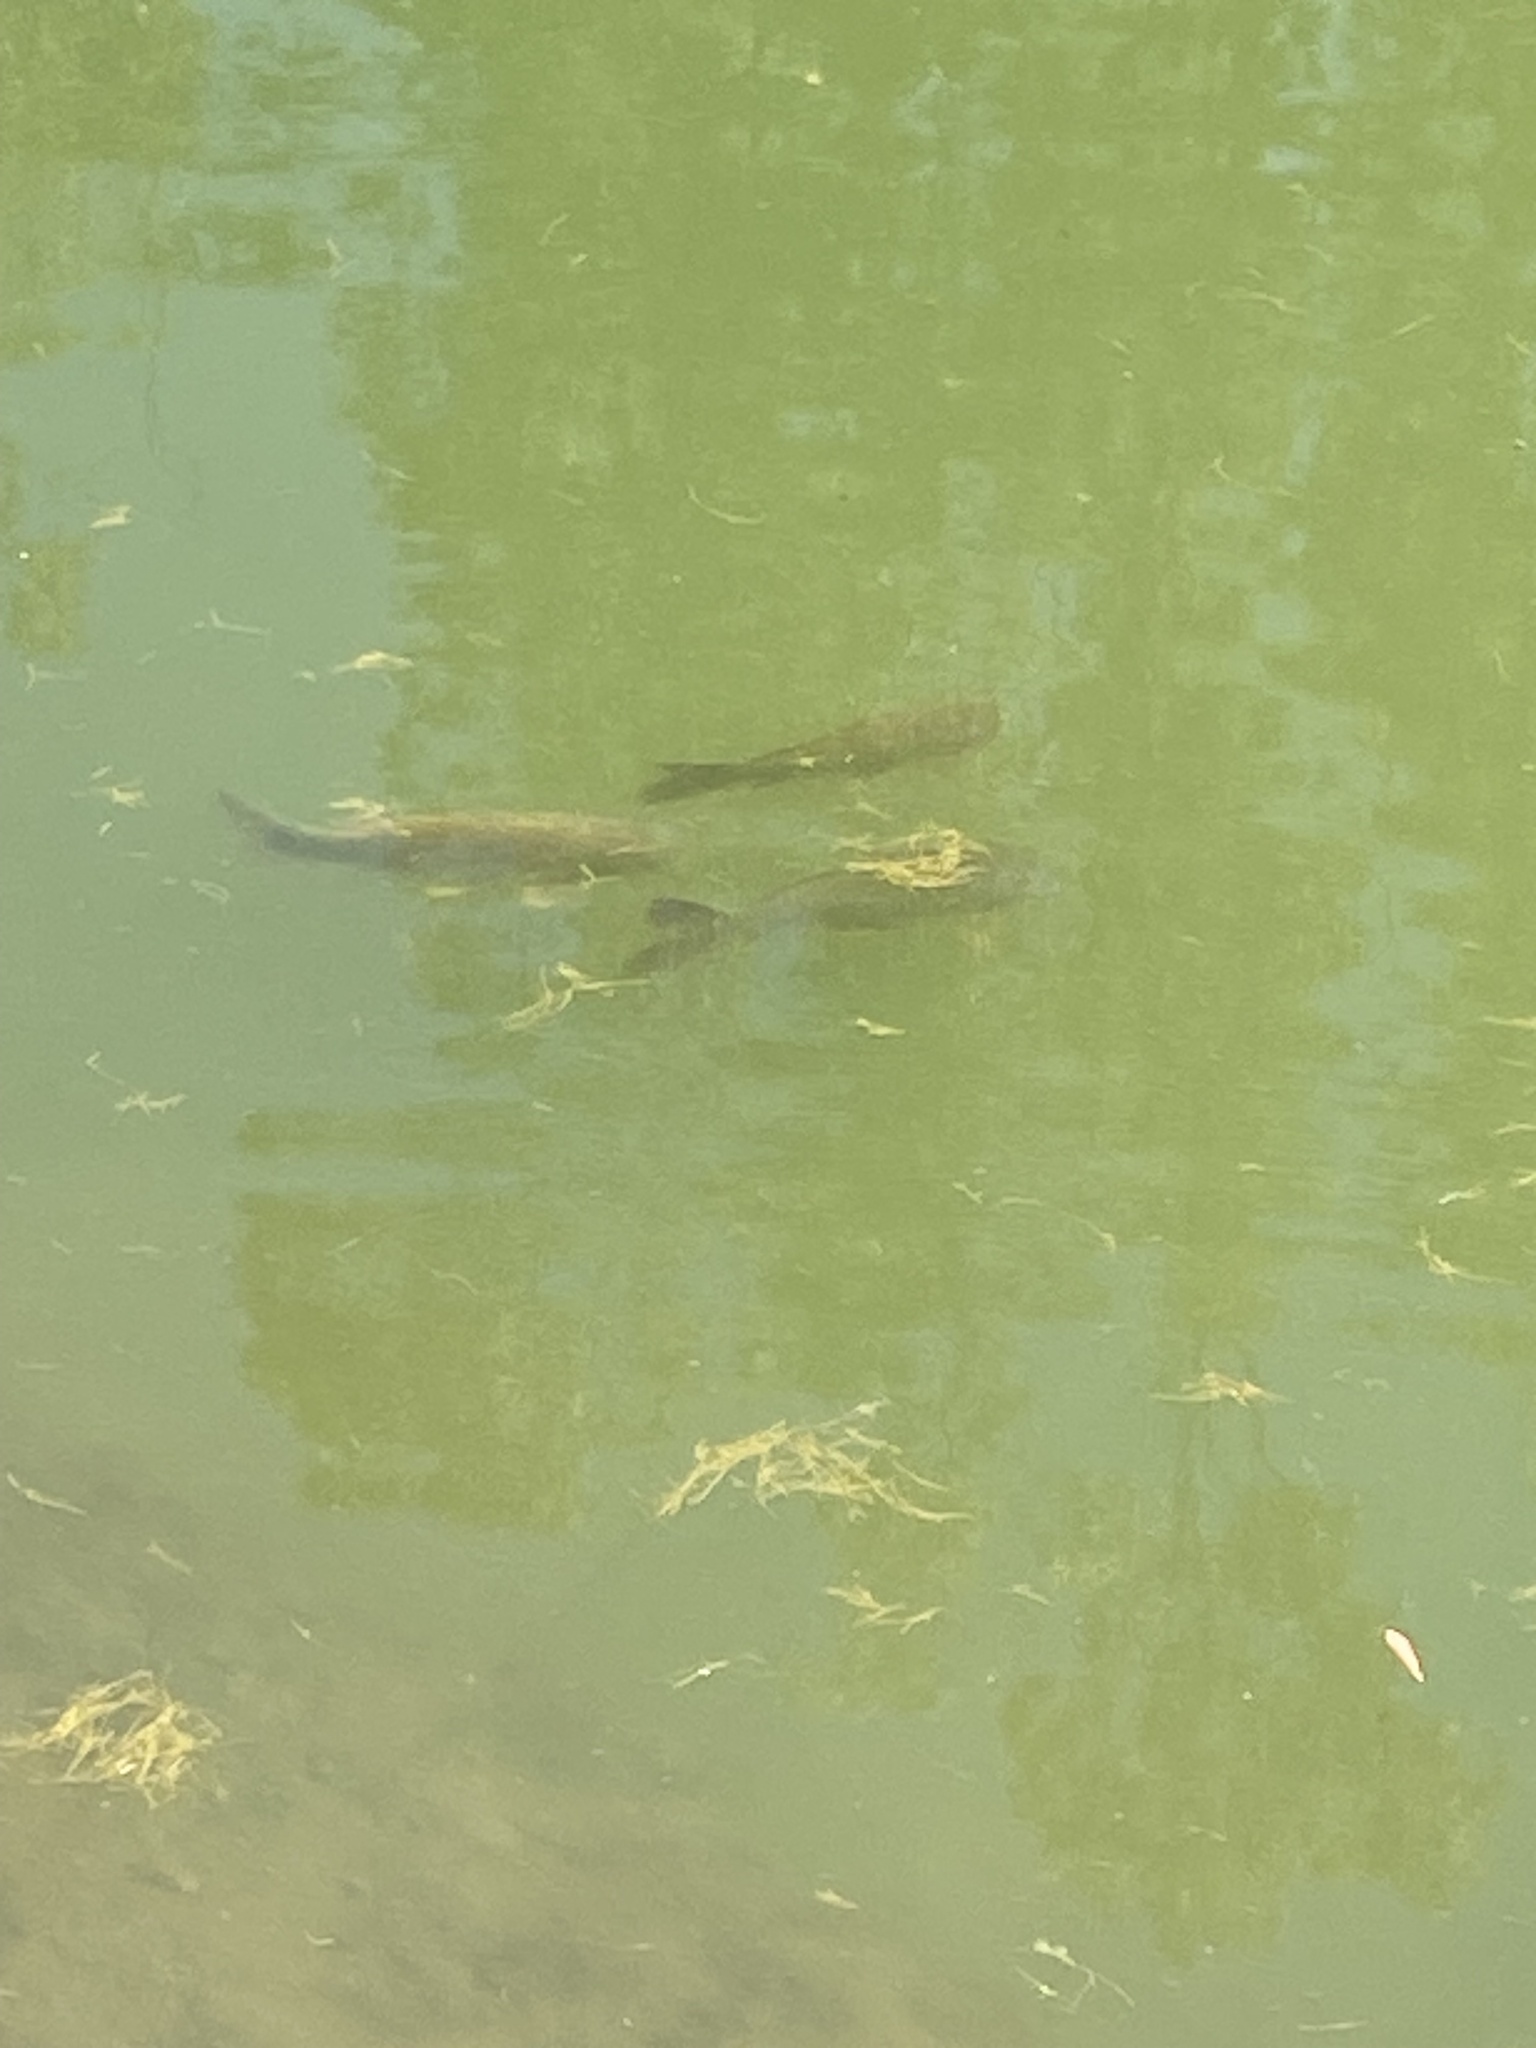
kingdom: Animalia
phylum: Chordata
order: Cypriniformes
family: Cyprinidae
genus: Cyprinus
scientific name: Cyprinus carpio
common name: Common carp
